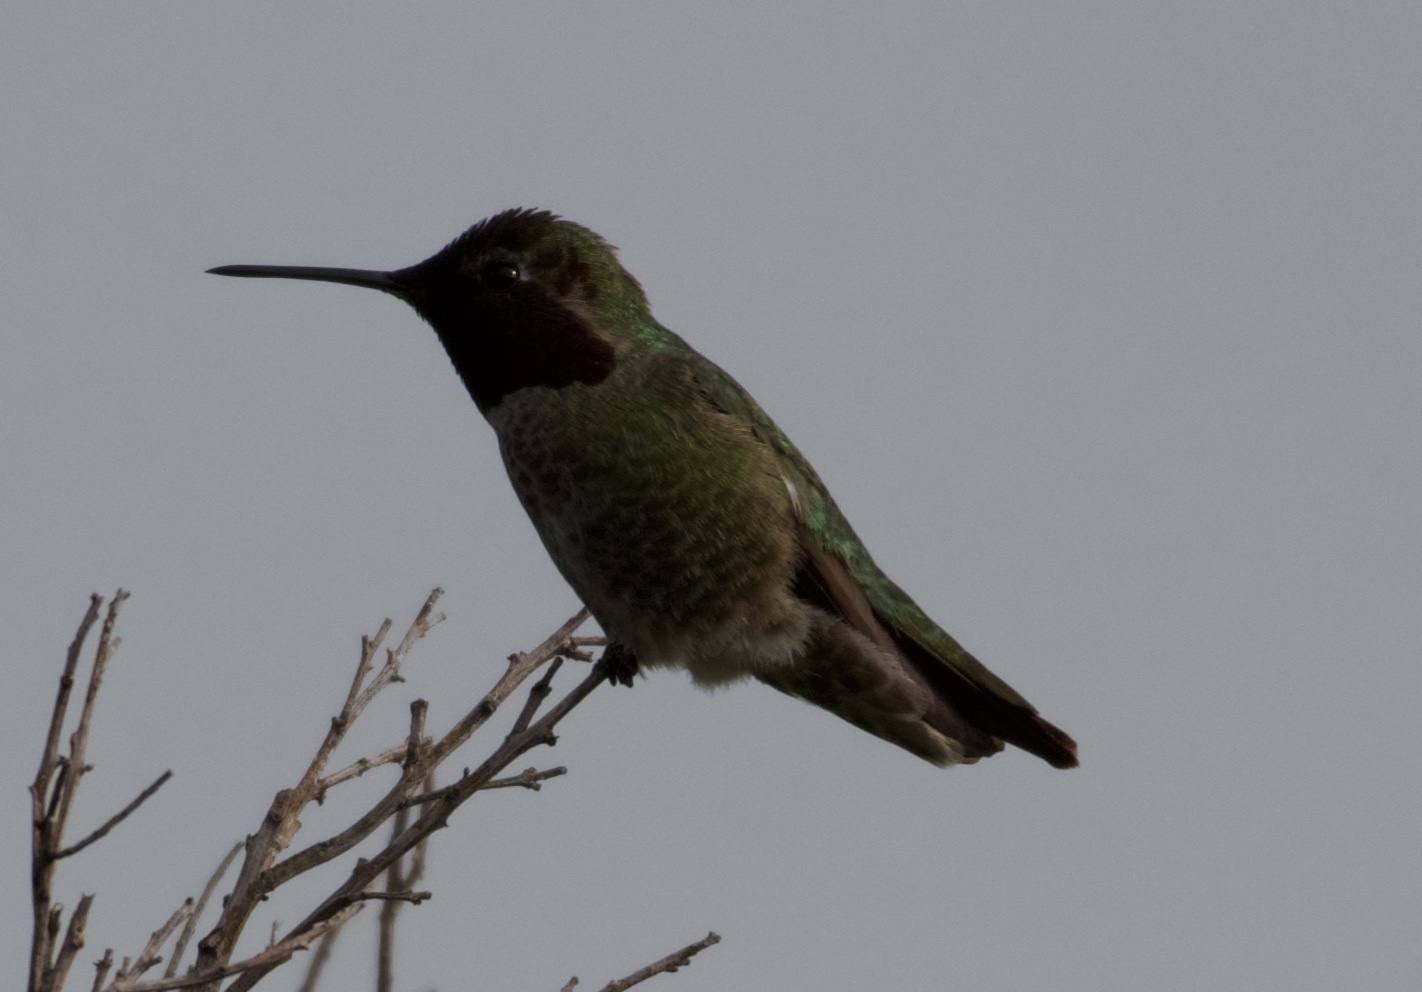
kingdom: Animalia
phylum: Chordata
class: Aves
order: Apodiformes
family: Trochilidae
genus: Calypte
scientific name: Calypte anna
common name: Anna's hummingbird
